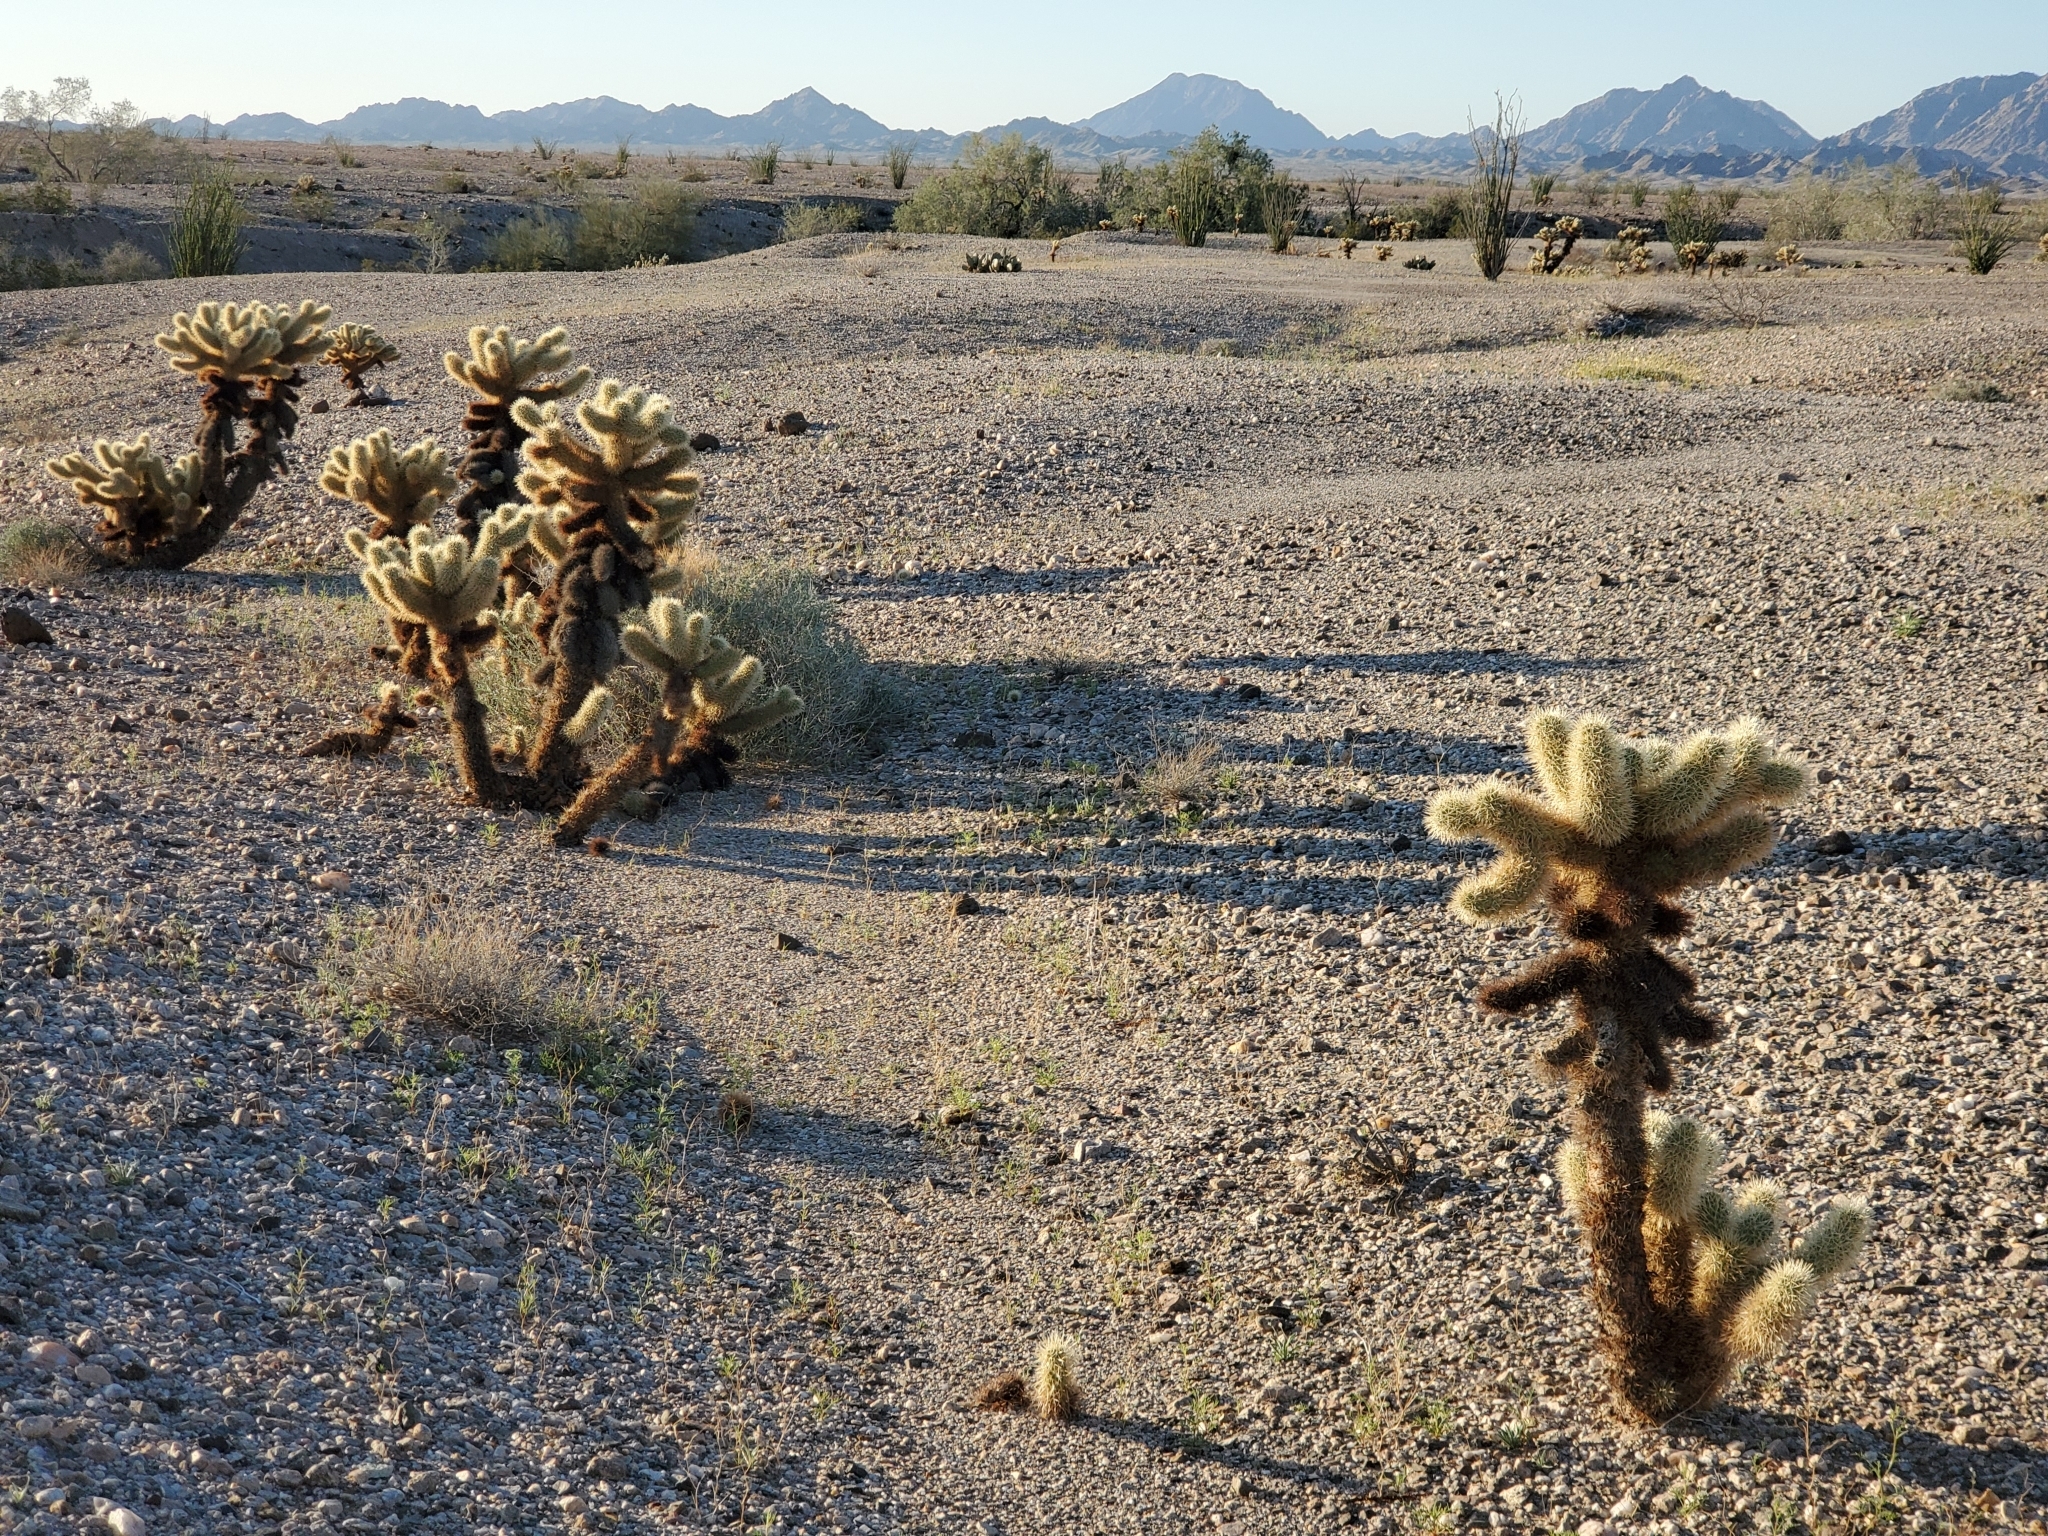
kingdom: Plantae
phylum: Tracheophyta
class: Magnoliopsida
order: Caryophyllales
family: Cactaceae
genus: Cylindropuntia
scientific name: Cylindropuntia fosbergii
